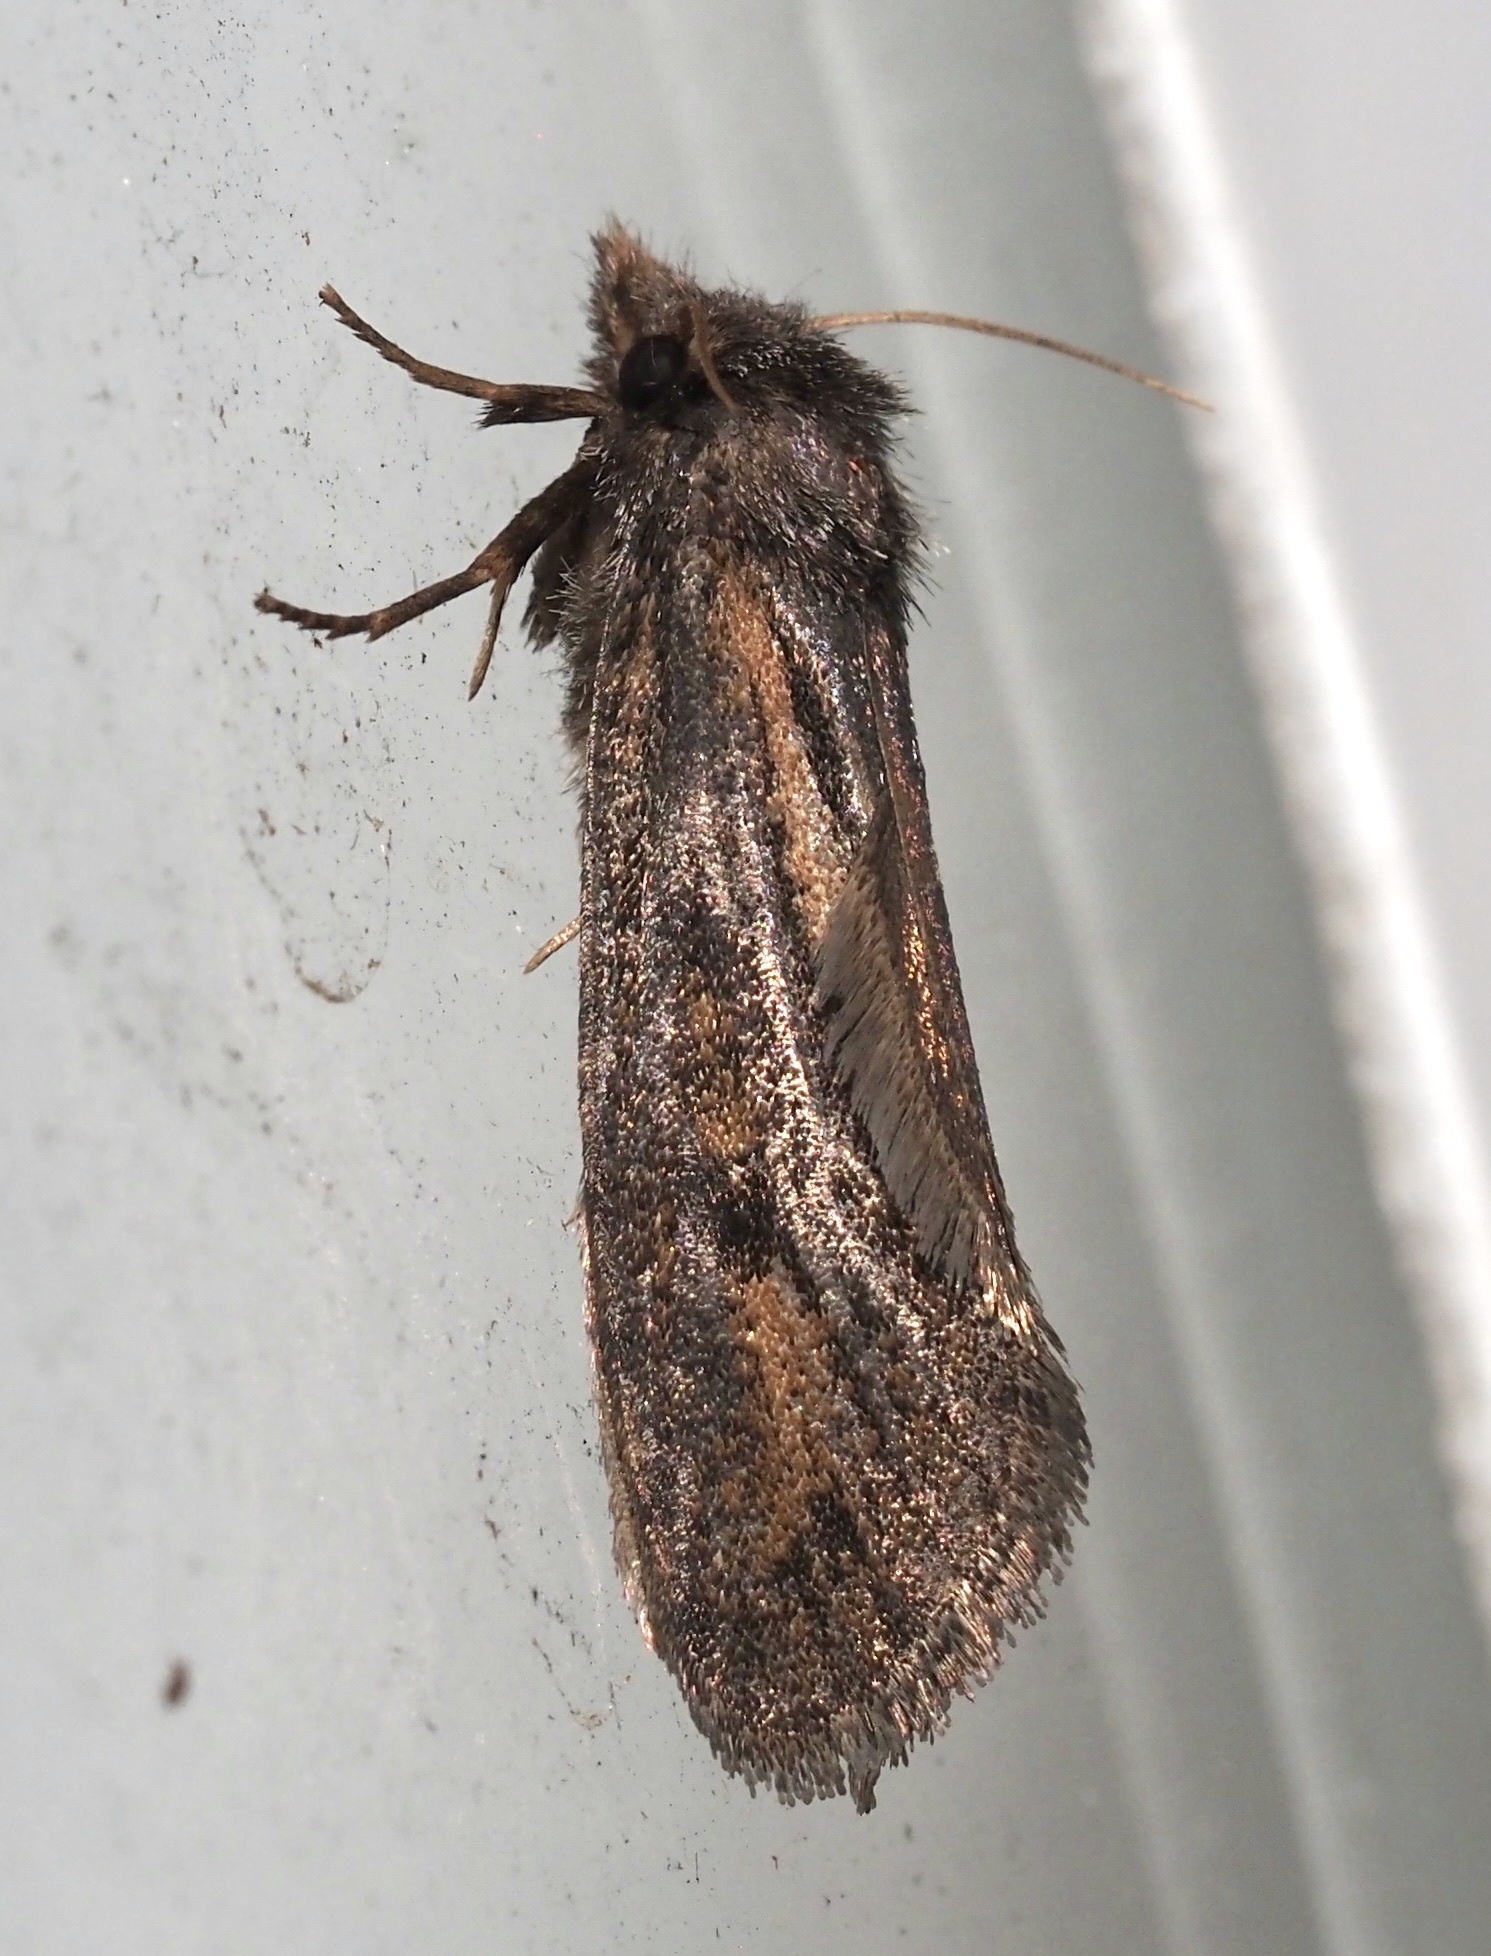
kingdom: Animalia
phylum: Arthropoda
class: Insecta
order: Lepidoptera
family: Tineidae
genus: Acrolophus
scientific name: Acrolophus popeanella
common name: Clemens' grass tubeworm moth
